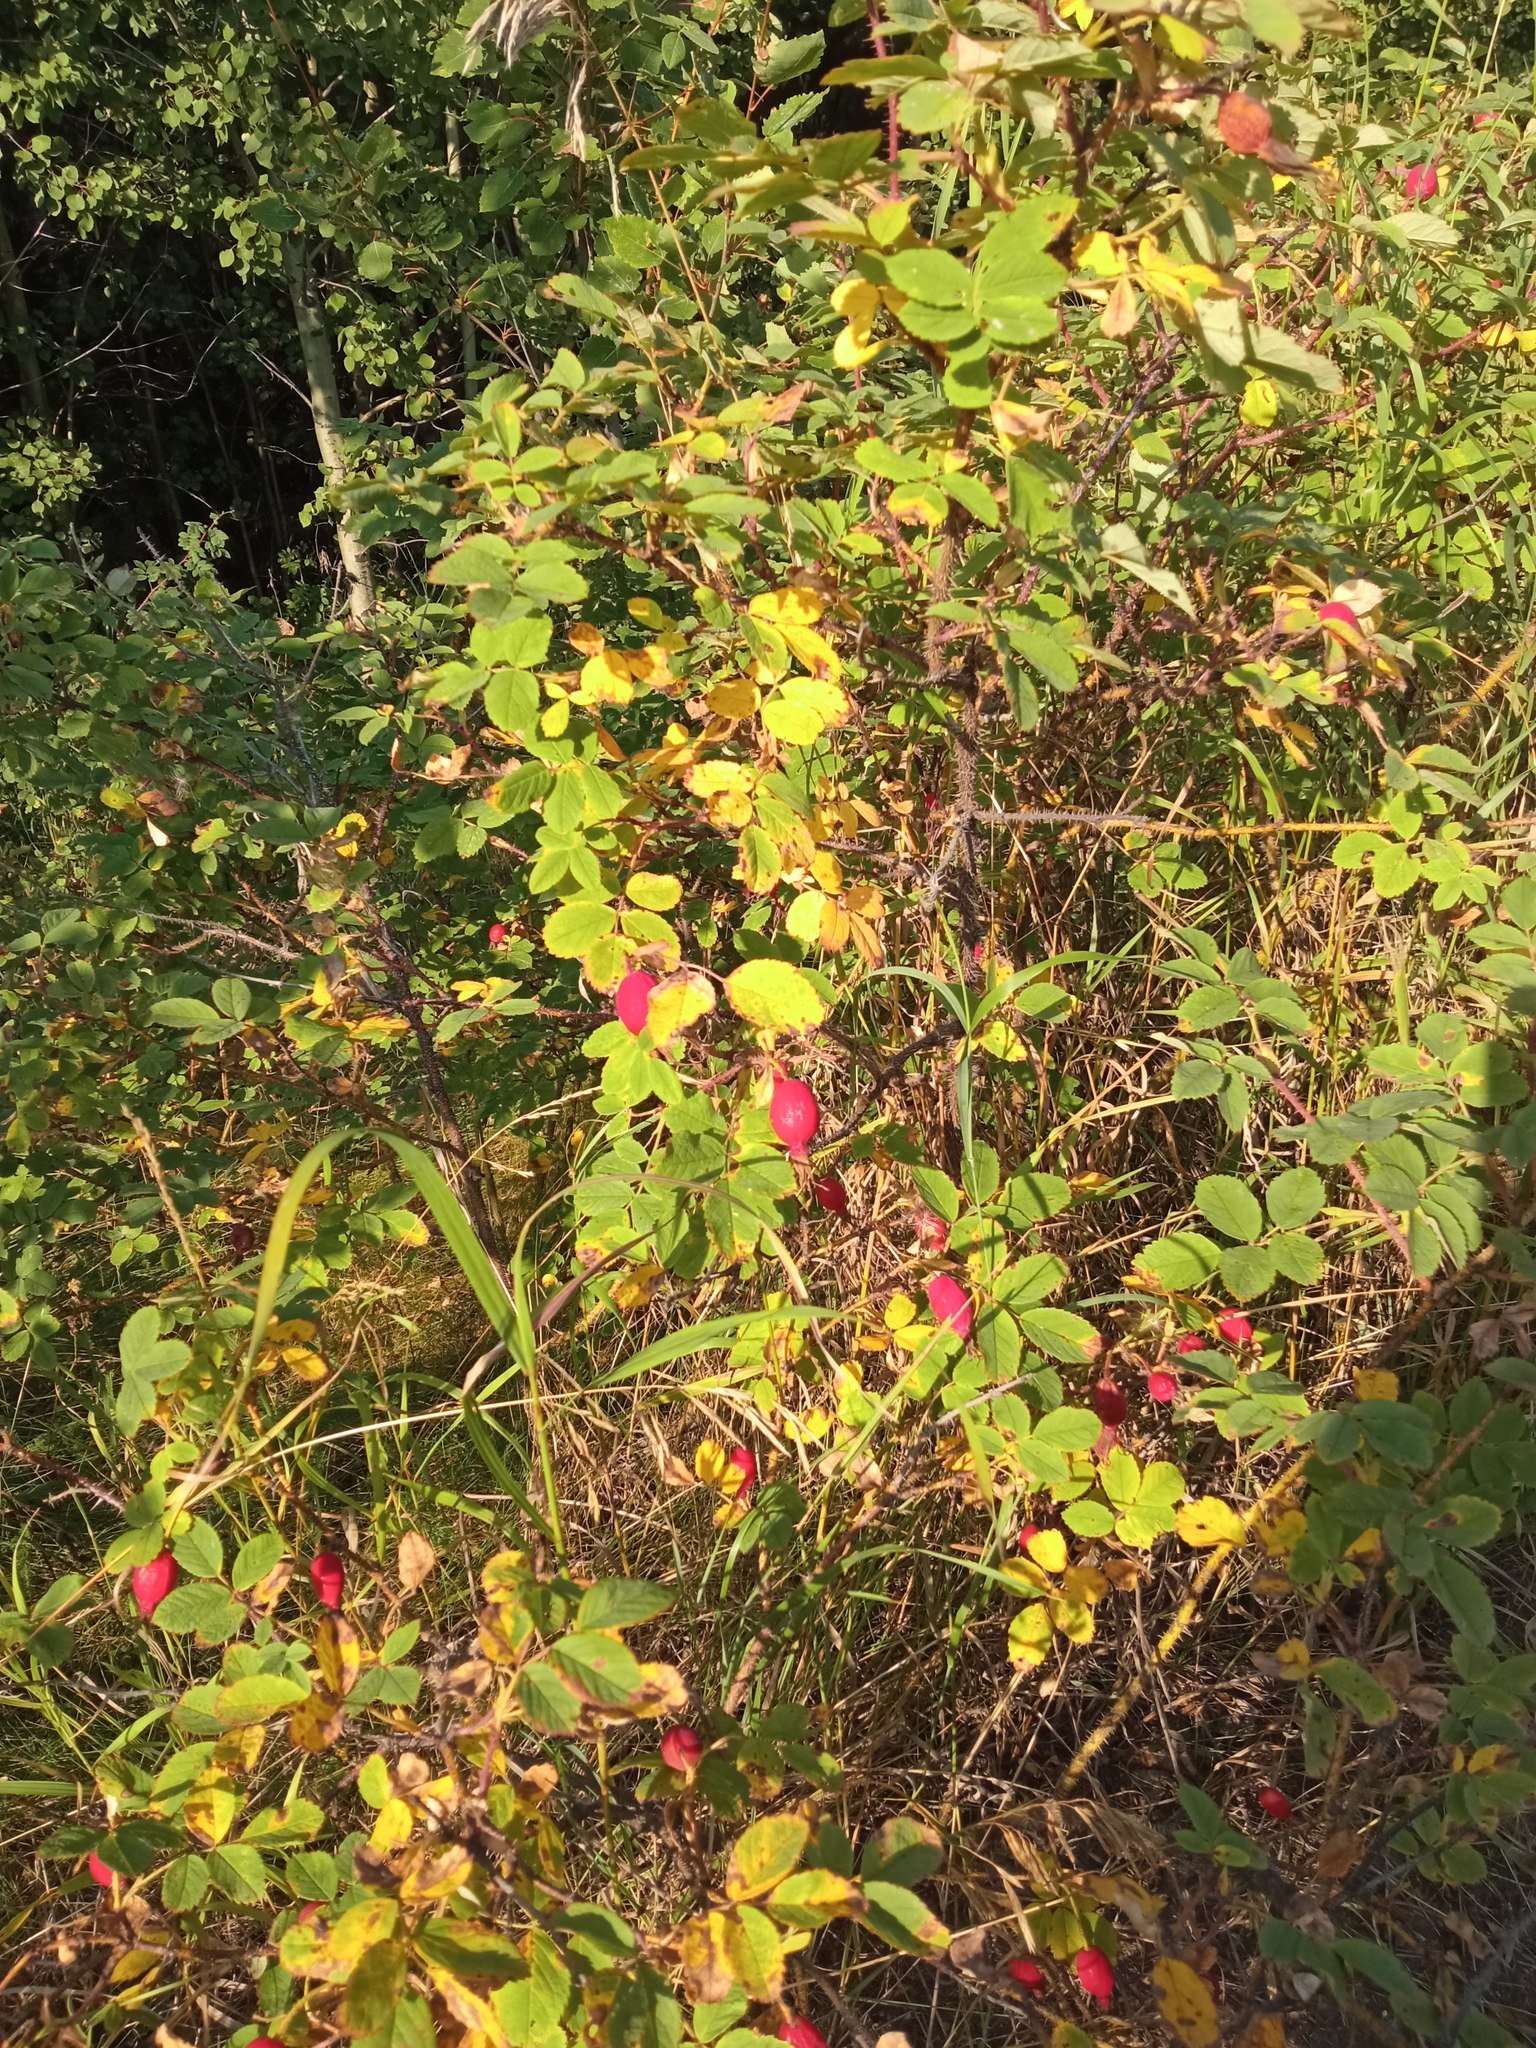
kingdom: Plantae
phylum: Tracheophyta
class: Magnoliopsida
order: Rosales
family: Rosaceae
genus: Rosa
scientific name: Rosa acicularis
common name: Prickly rose
